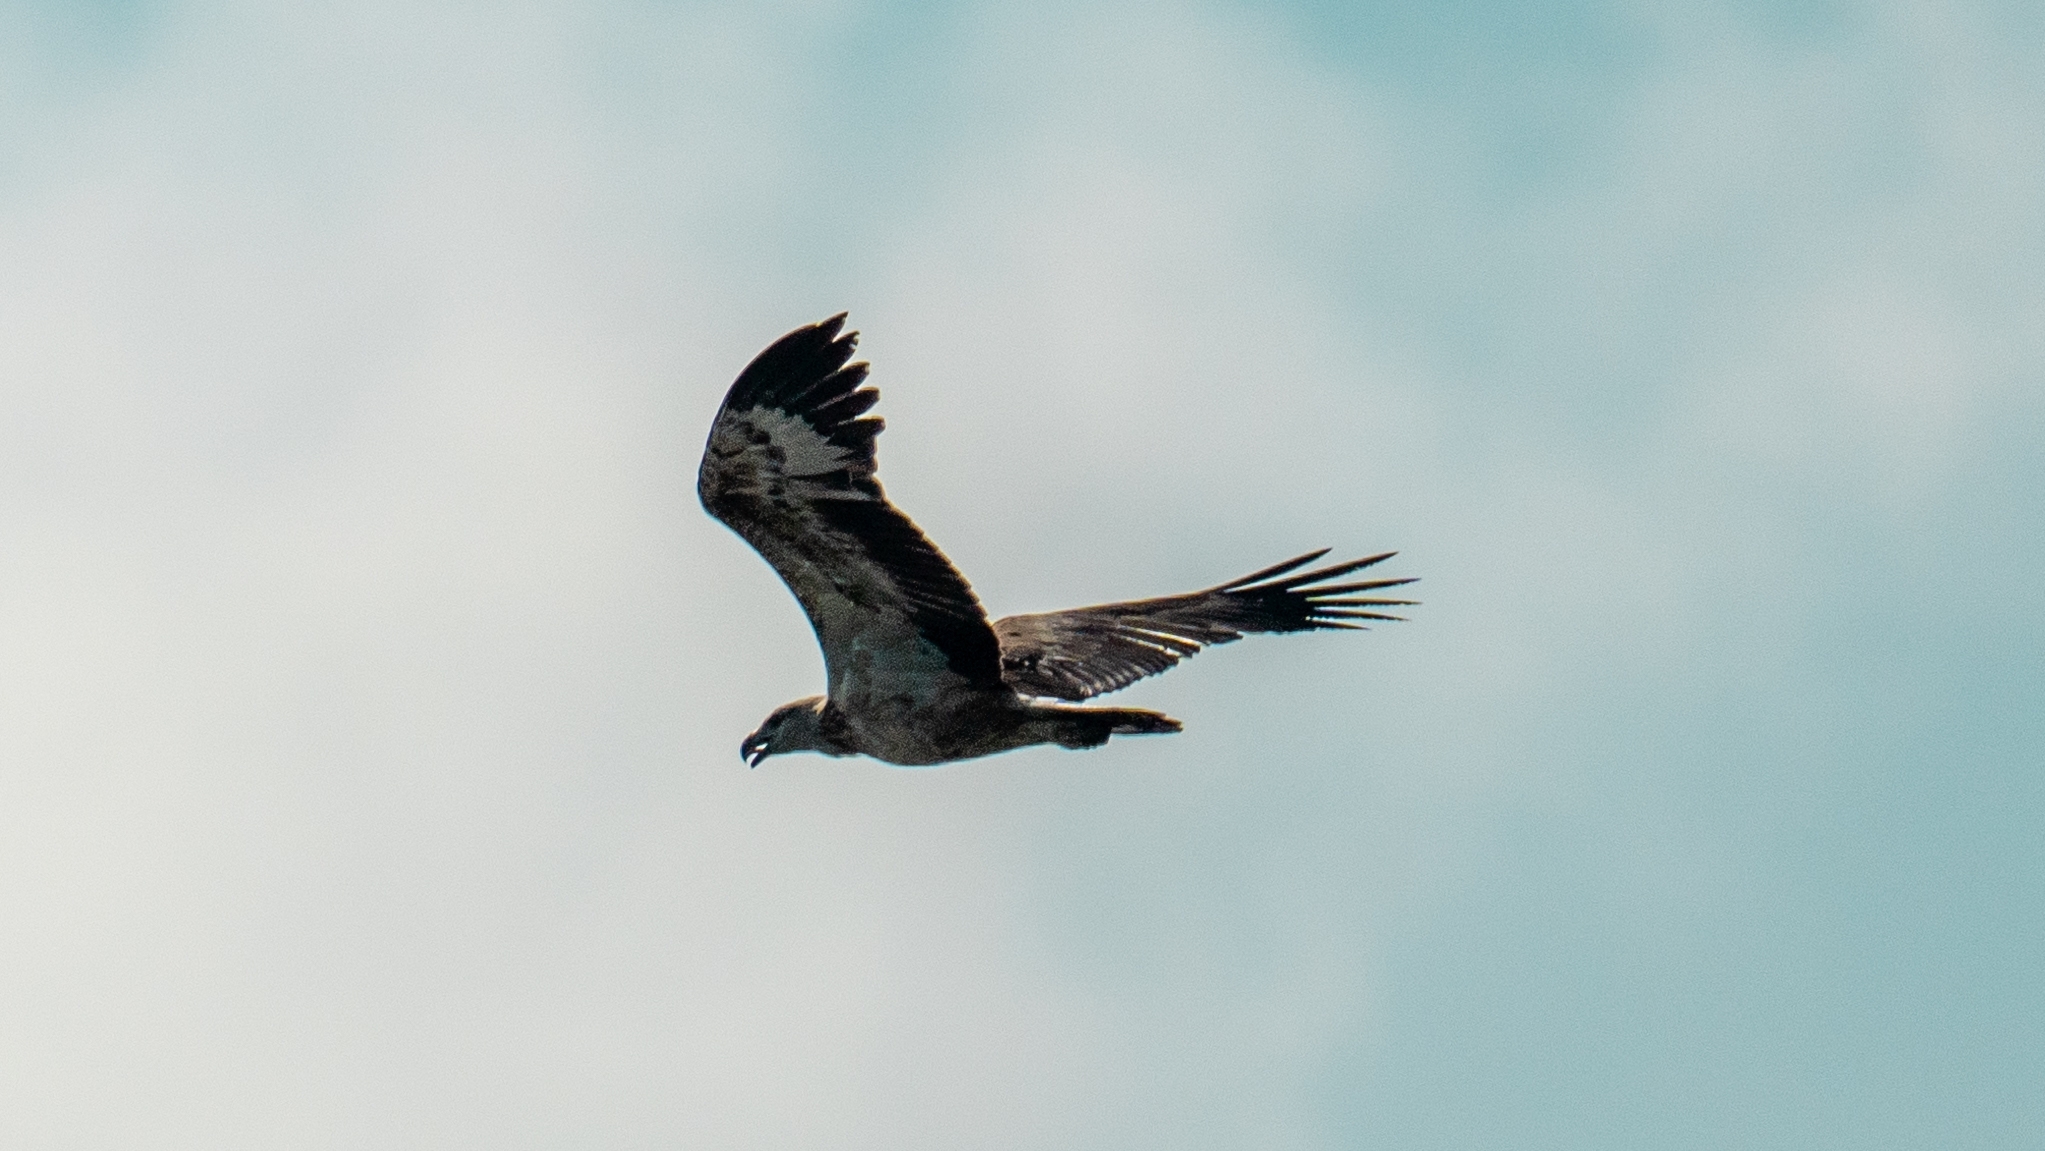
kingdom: Animalia
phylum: Chordata
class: Aves
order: Accipitriformes
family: Accipitridae
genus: Haliaeetus
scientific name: Haliaeetus leucogaster
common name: White-bellied sea eagle
